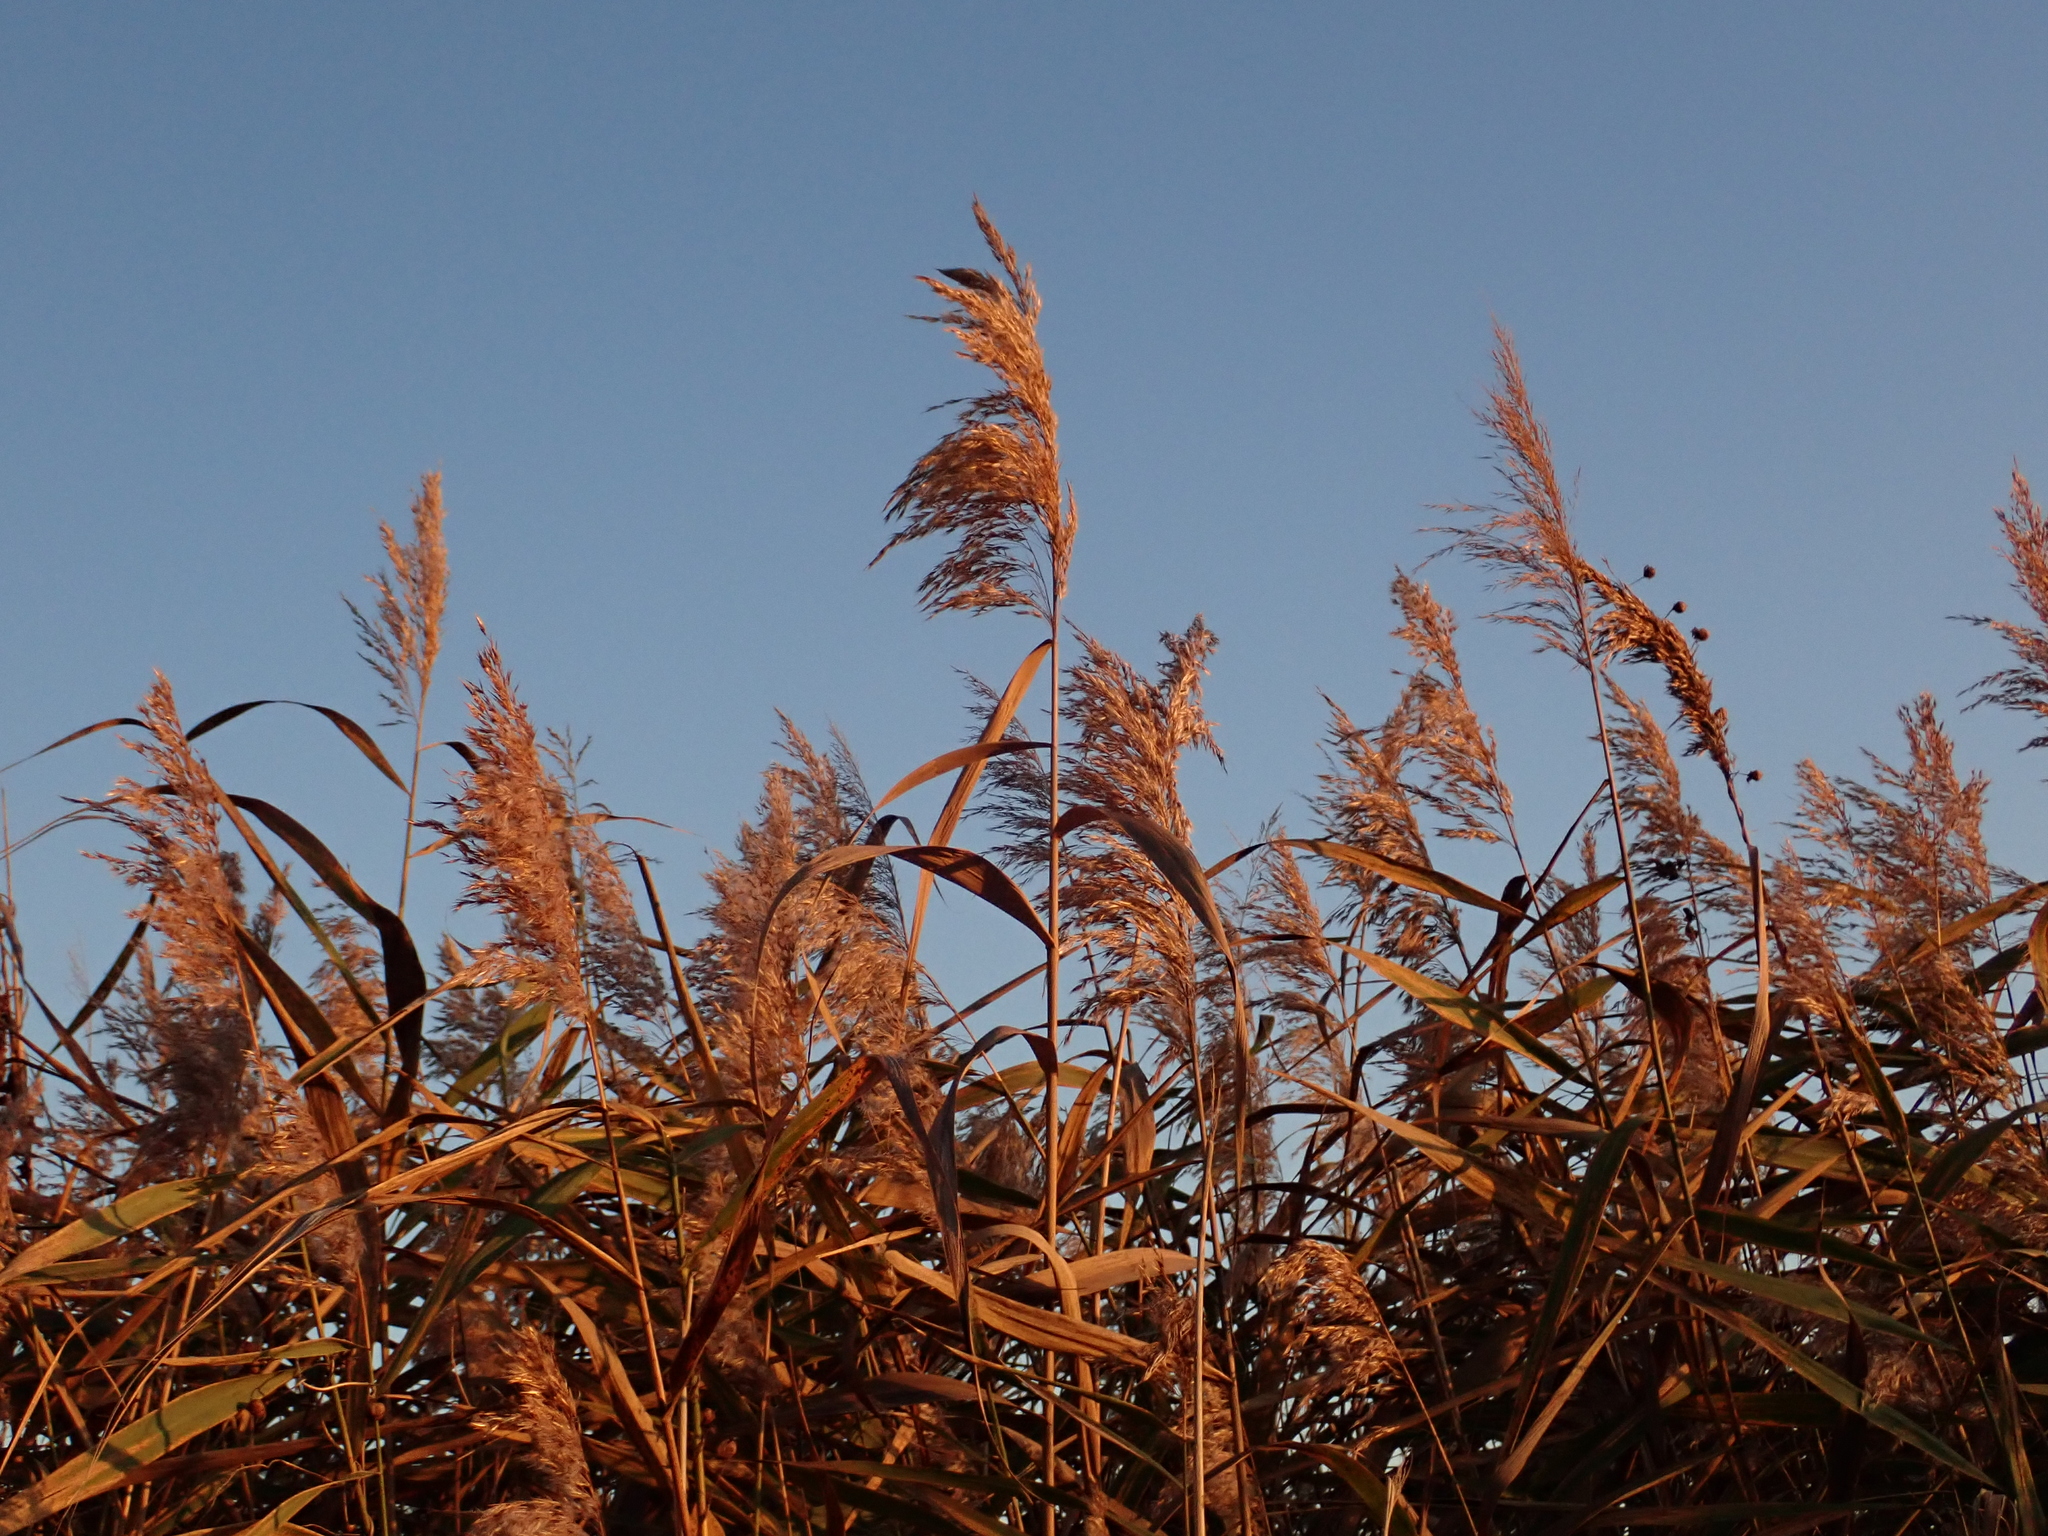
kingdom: Plantae
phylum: Tracheophyta
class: Liliopsida
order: Poales
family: Poaceae
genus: Phragmites
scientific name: Phragmites australis
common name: Common reed
